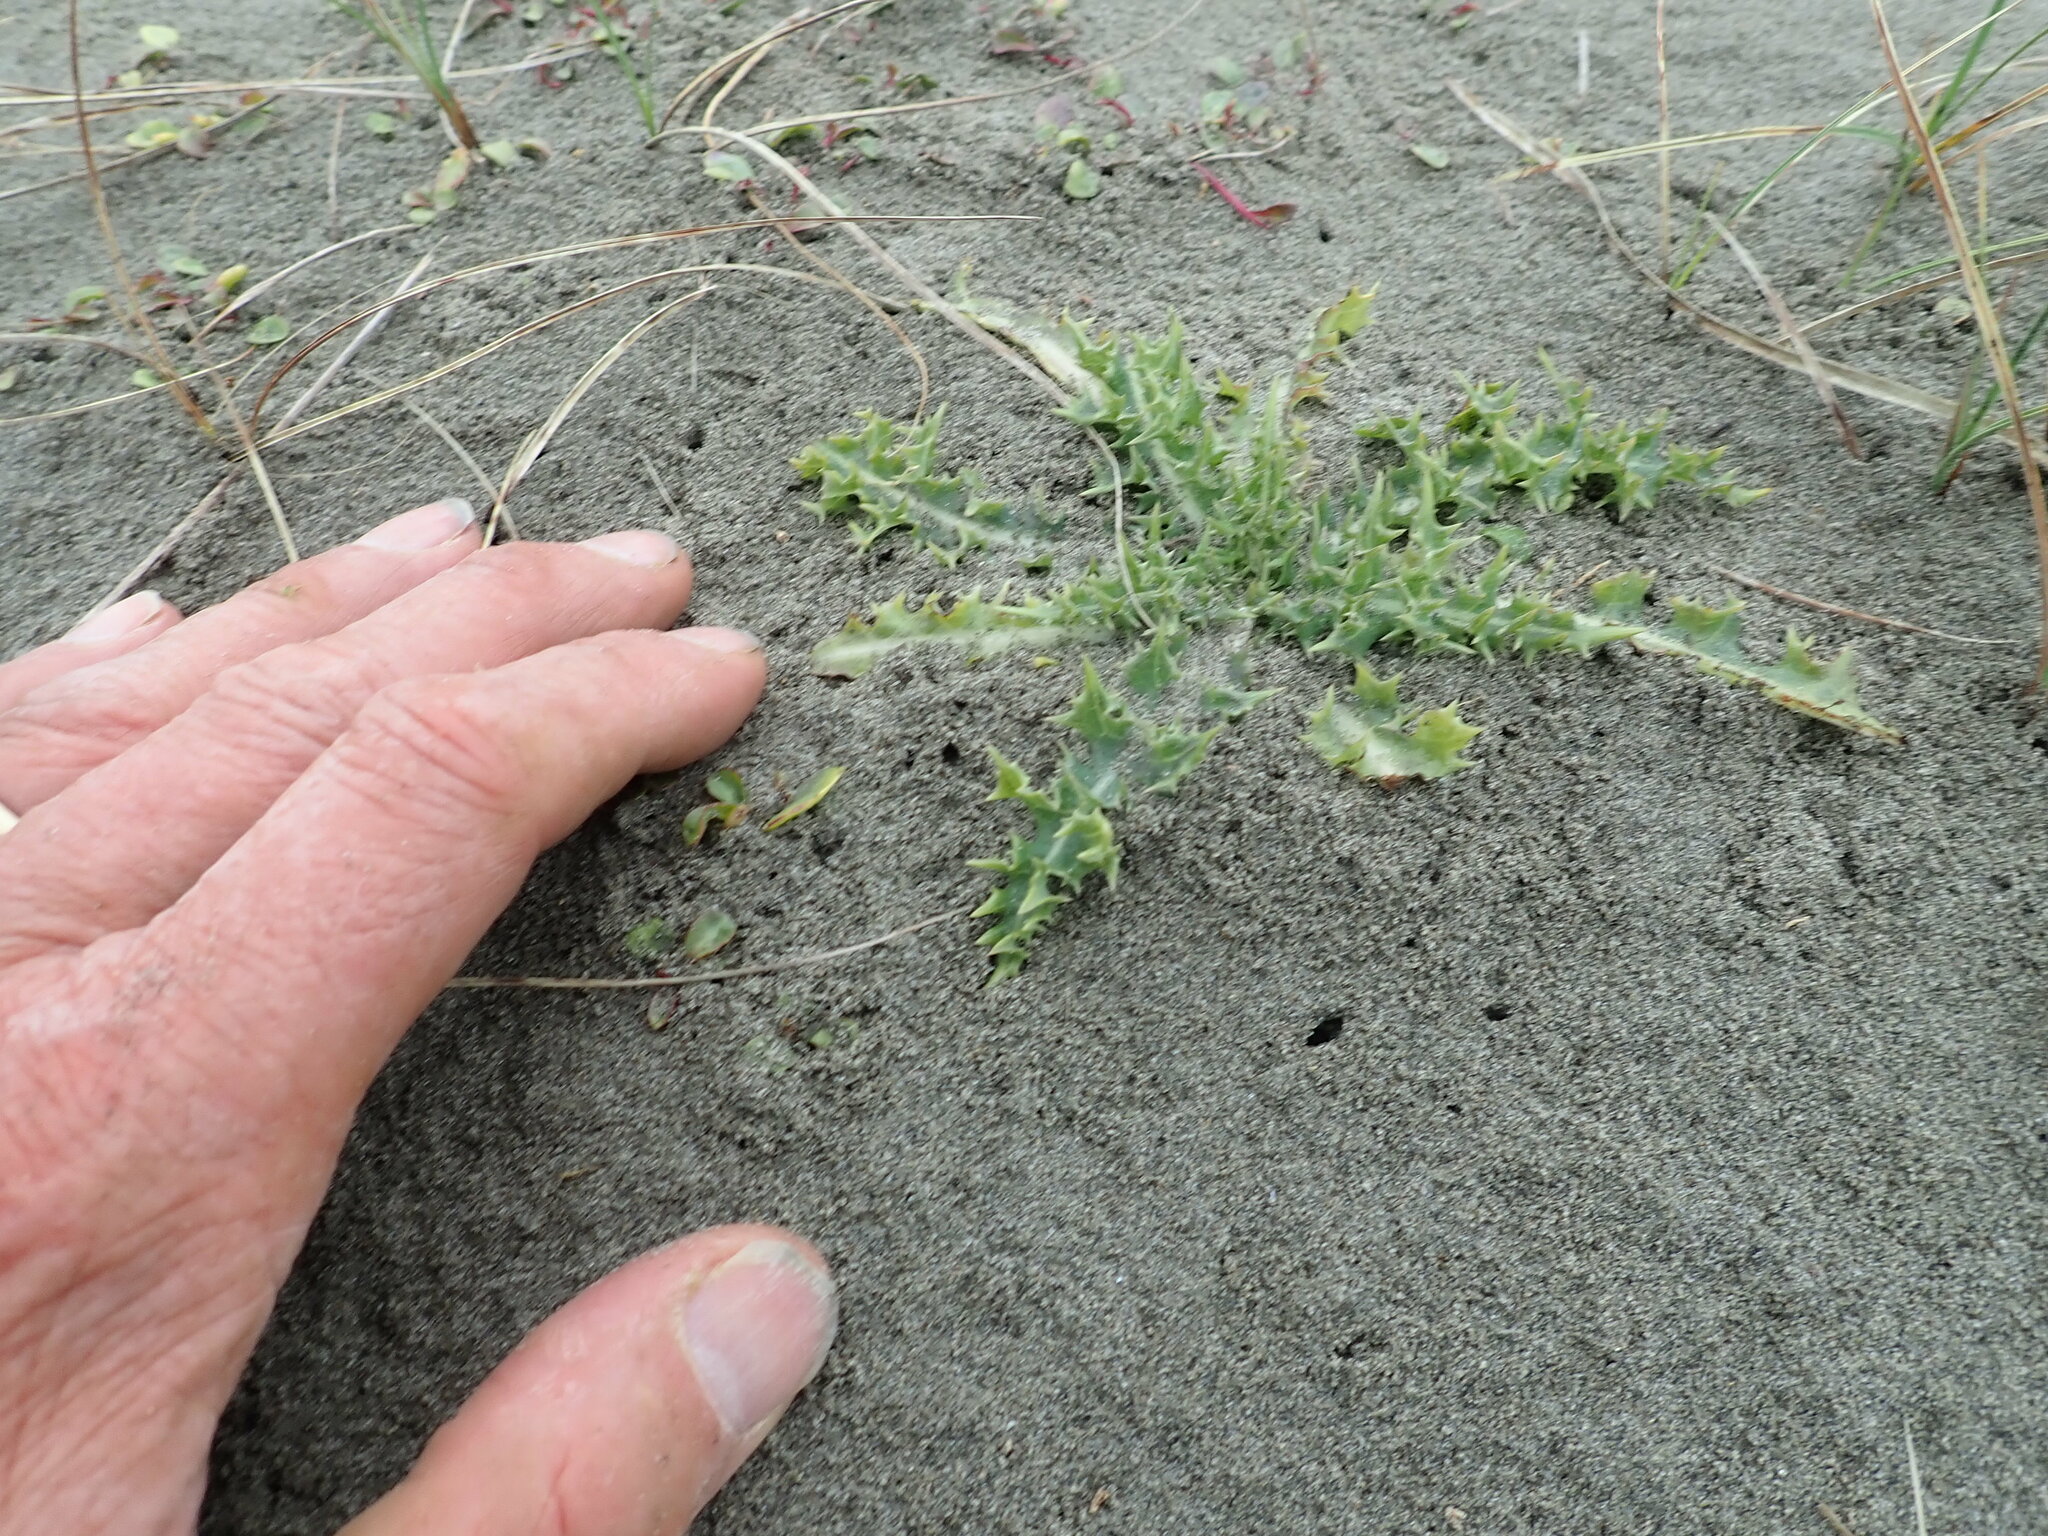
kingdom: Plantae
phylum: Tracheophyta
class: Magnoliopsida
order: Asterales
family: Asteraceae
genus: Sonchus
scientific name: Sonchus asper
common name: Prickly sow-thistle
